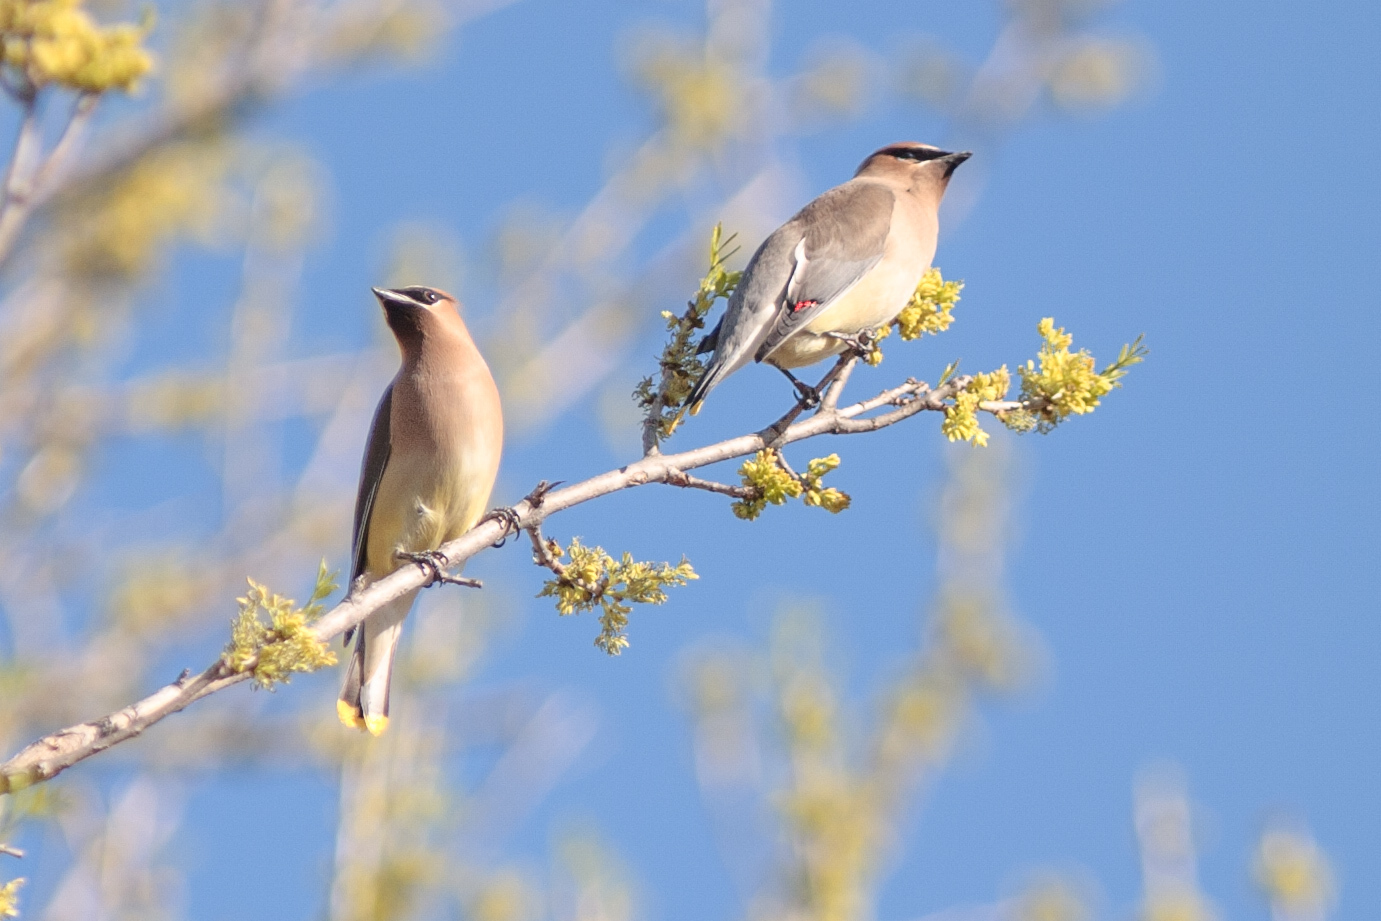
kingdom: Animalia
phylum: Chordata
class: Aves
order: Passeriformes
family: Bombycillidae
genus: Bombycilla
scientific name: Bombycilla cedrorum
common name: Cedar waxwing
